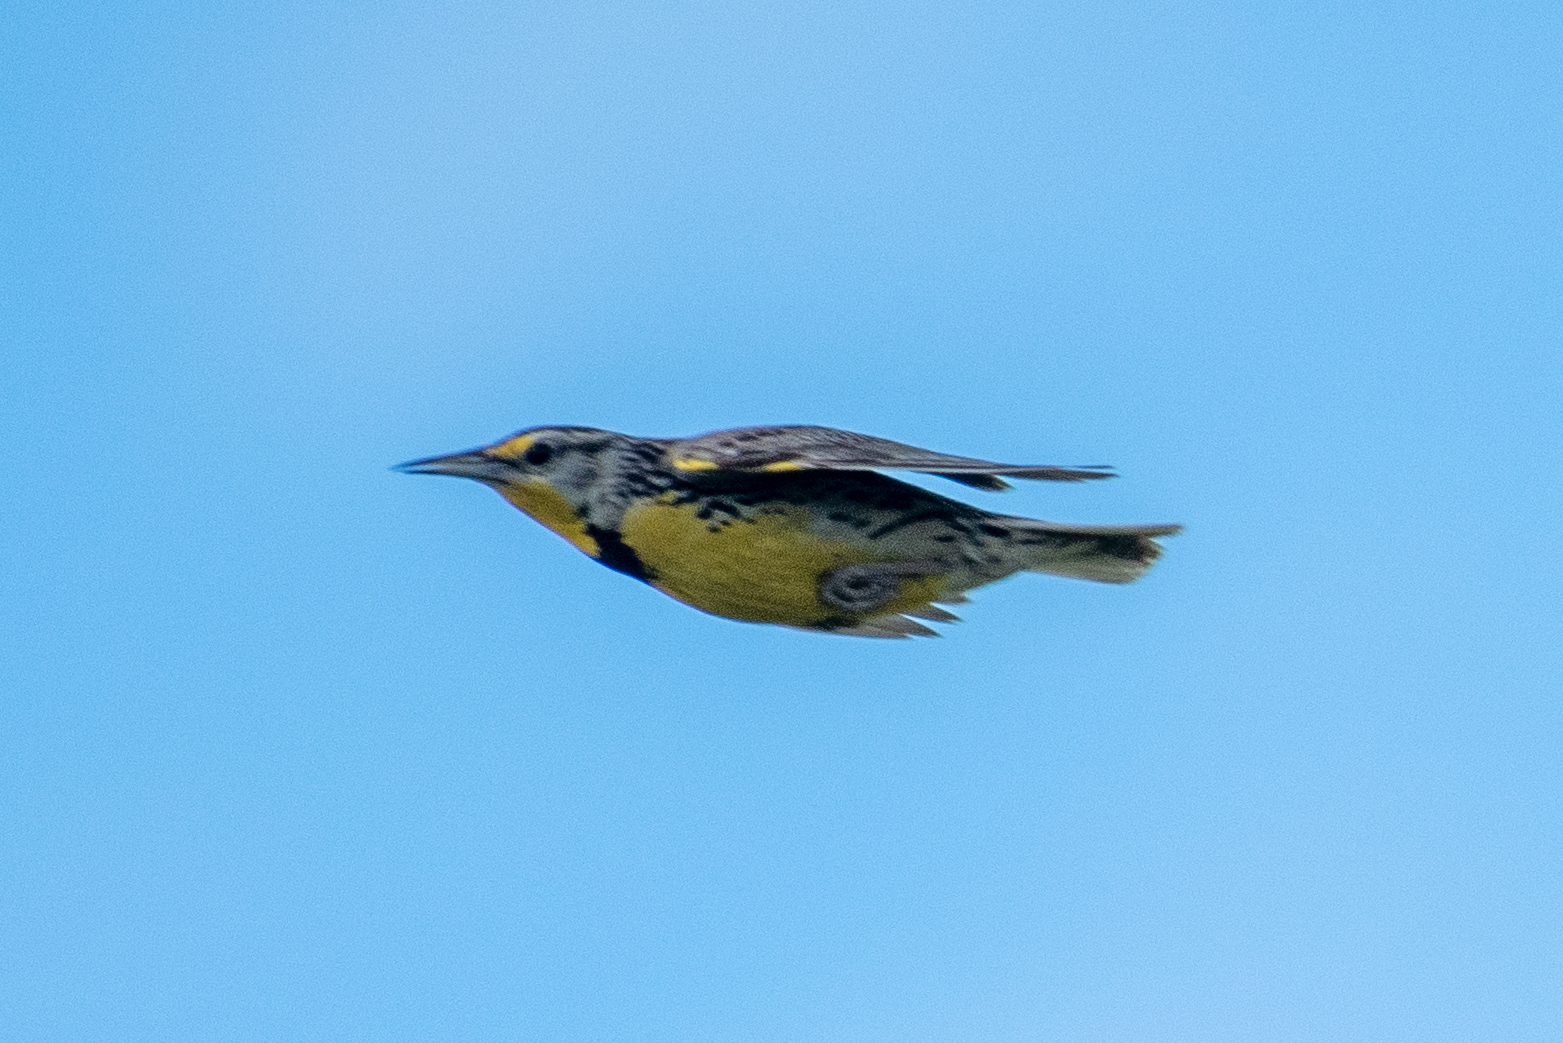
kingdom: Animalia
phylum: Chordata
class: Aves
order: Passeriformes
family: Icteridae
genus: Sturnella
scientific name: Sturnella neglecta
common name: Western meadowlark
